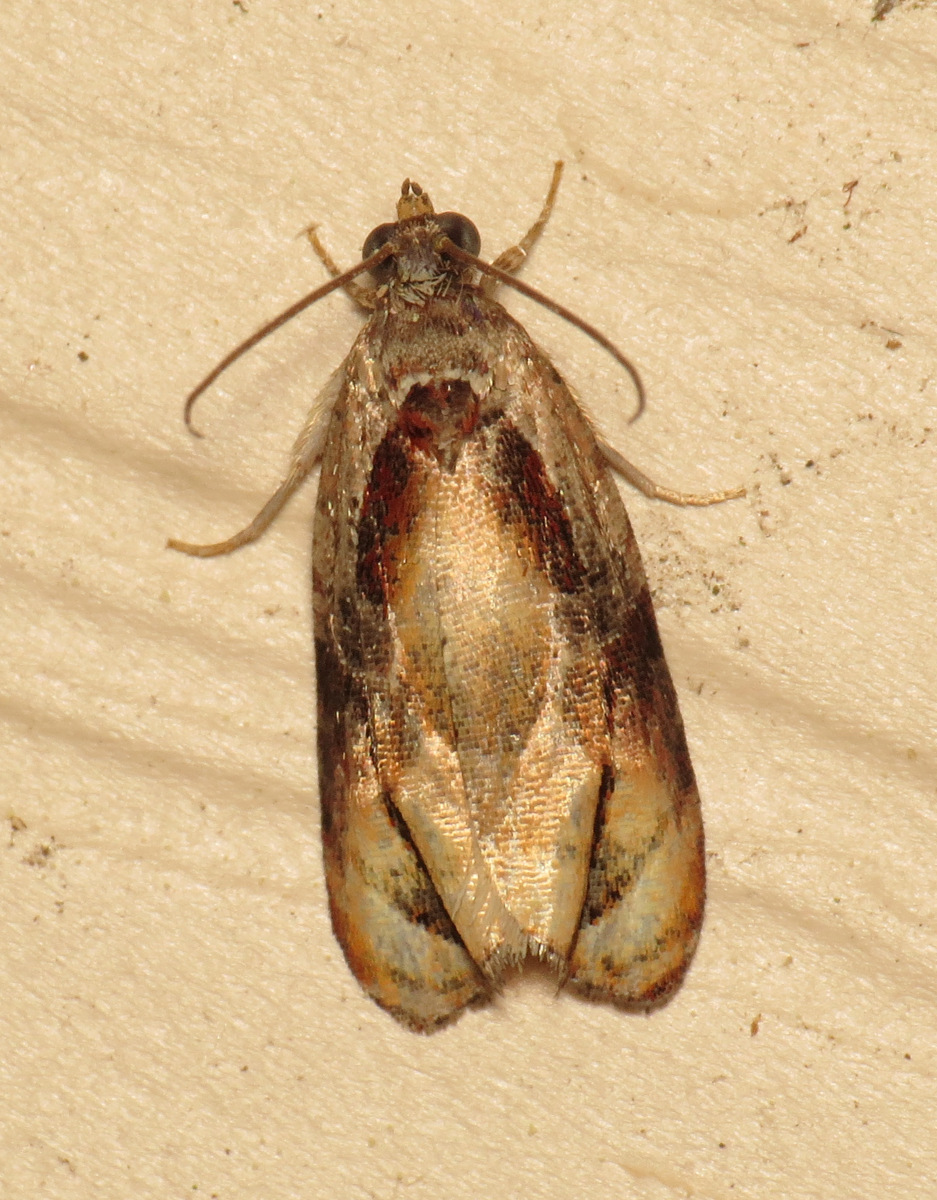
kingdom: Animalia
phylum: Arthropoda
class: Insecta
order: Lepidoptera
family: Tortricidae
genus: Zomaria
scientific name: Zomaria interruptolineana
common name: Broken-lined zomaria moth
